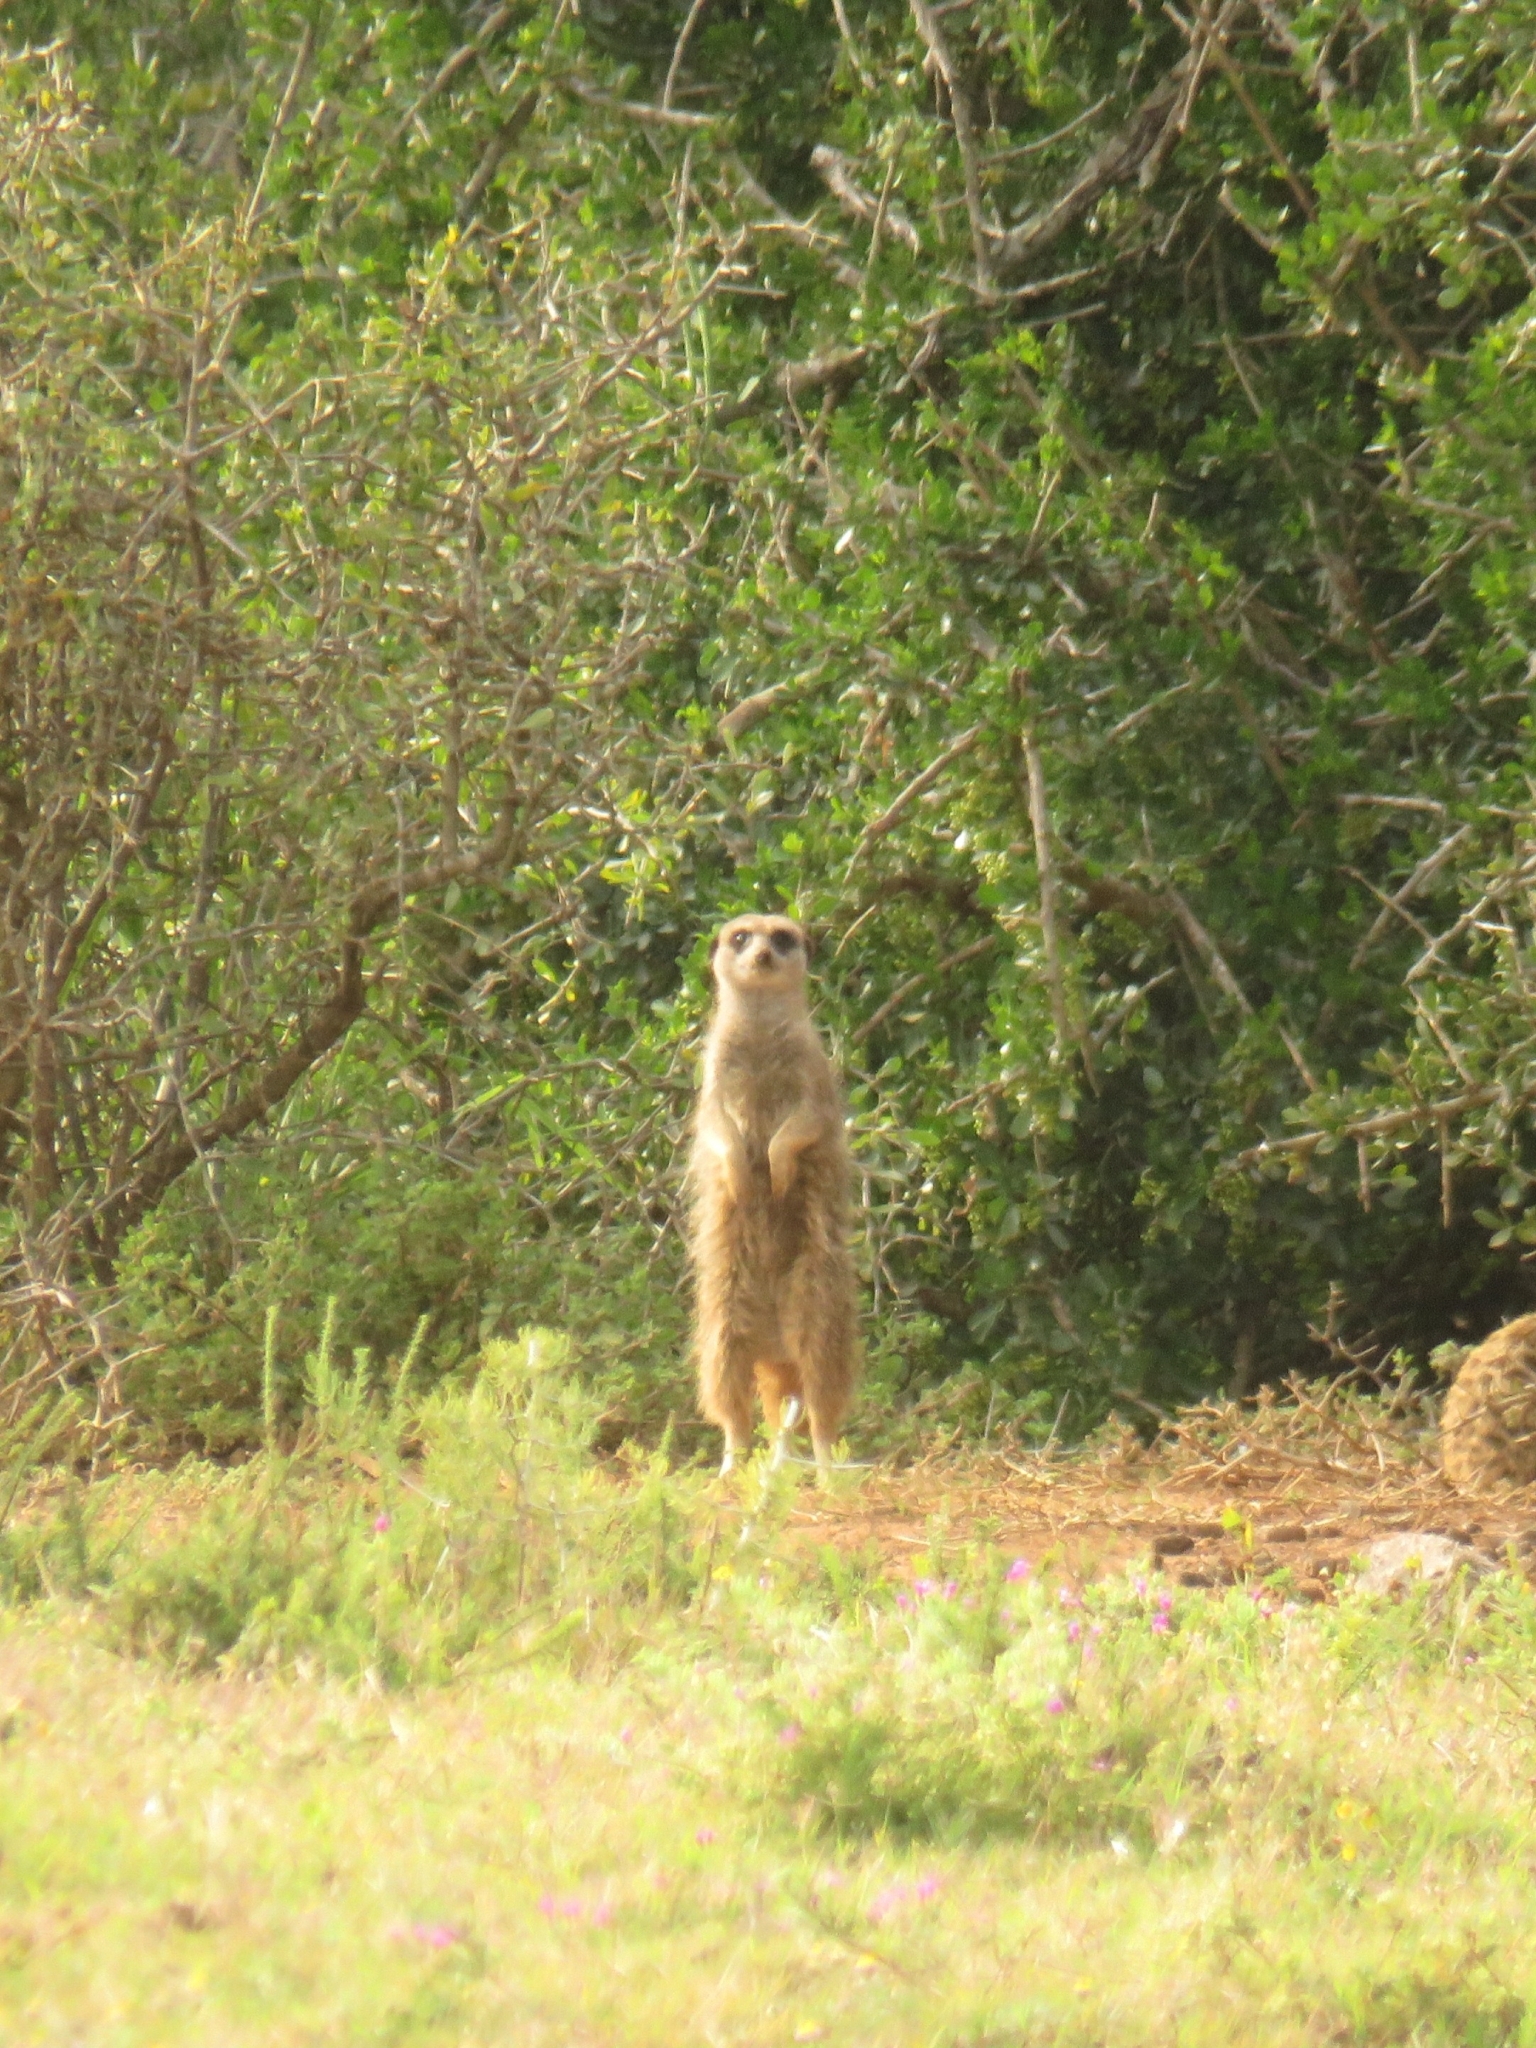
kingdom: Animalia
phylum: Chordata
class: Mammalia
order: Carnivora
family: Herpestidae
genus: Suricata
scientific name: Suricata suricatta
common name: Meerkat
